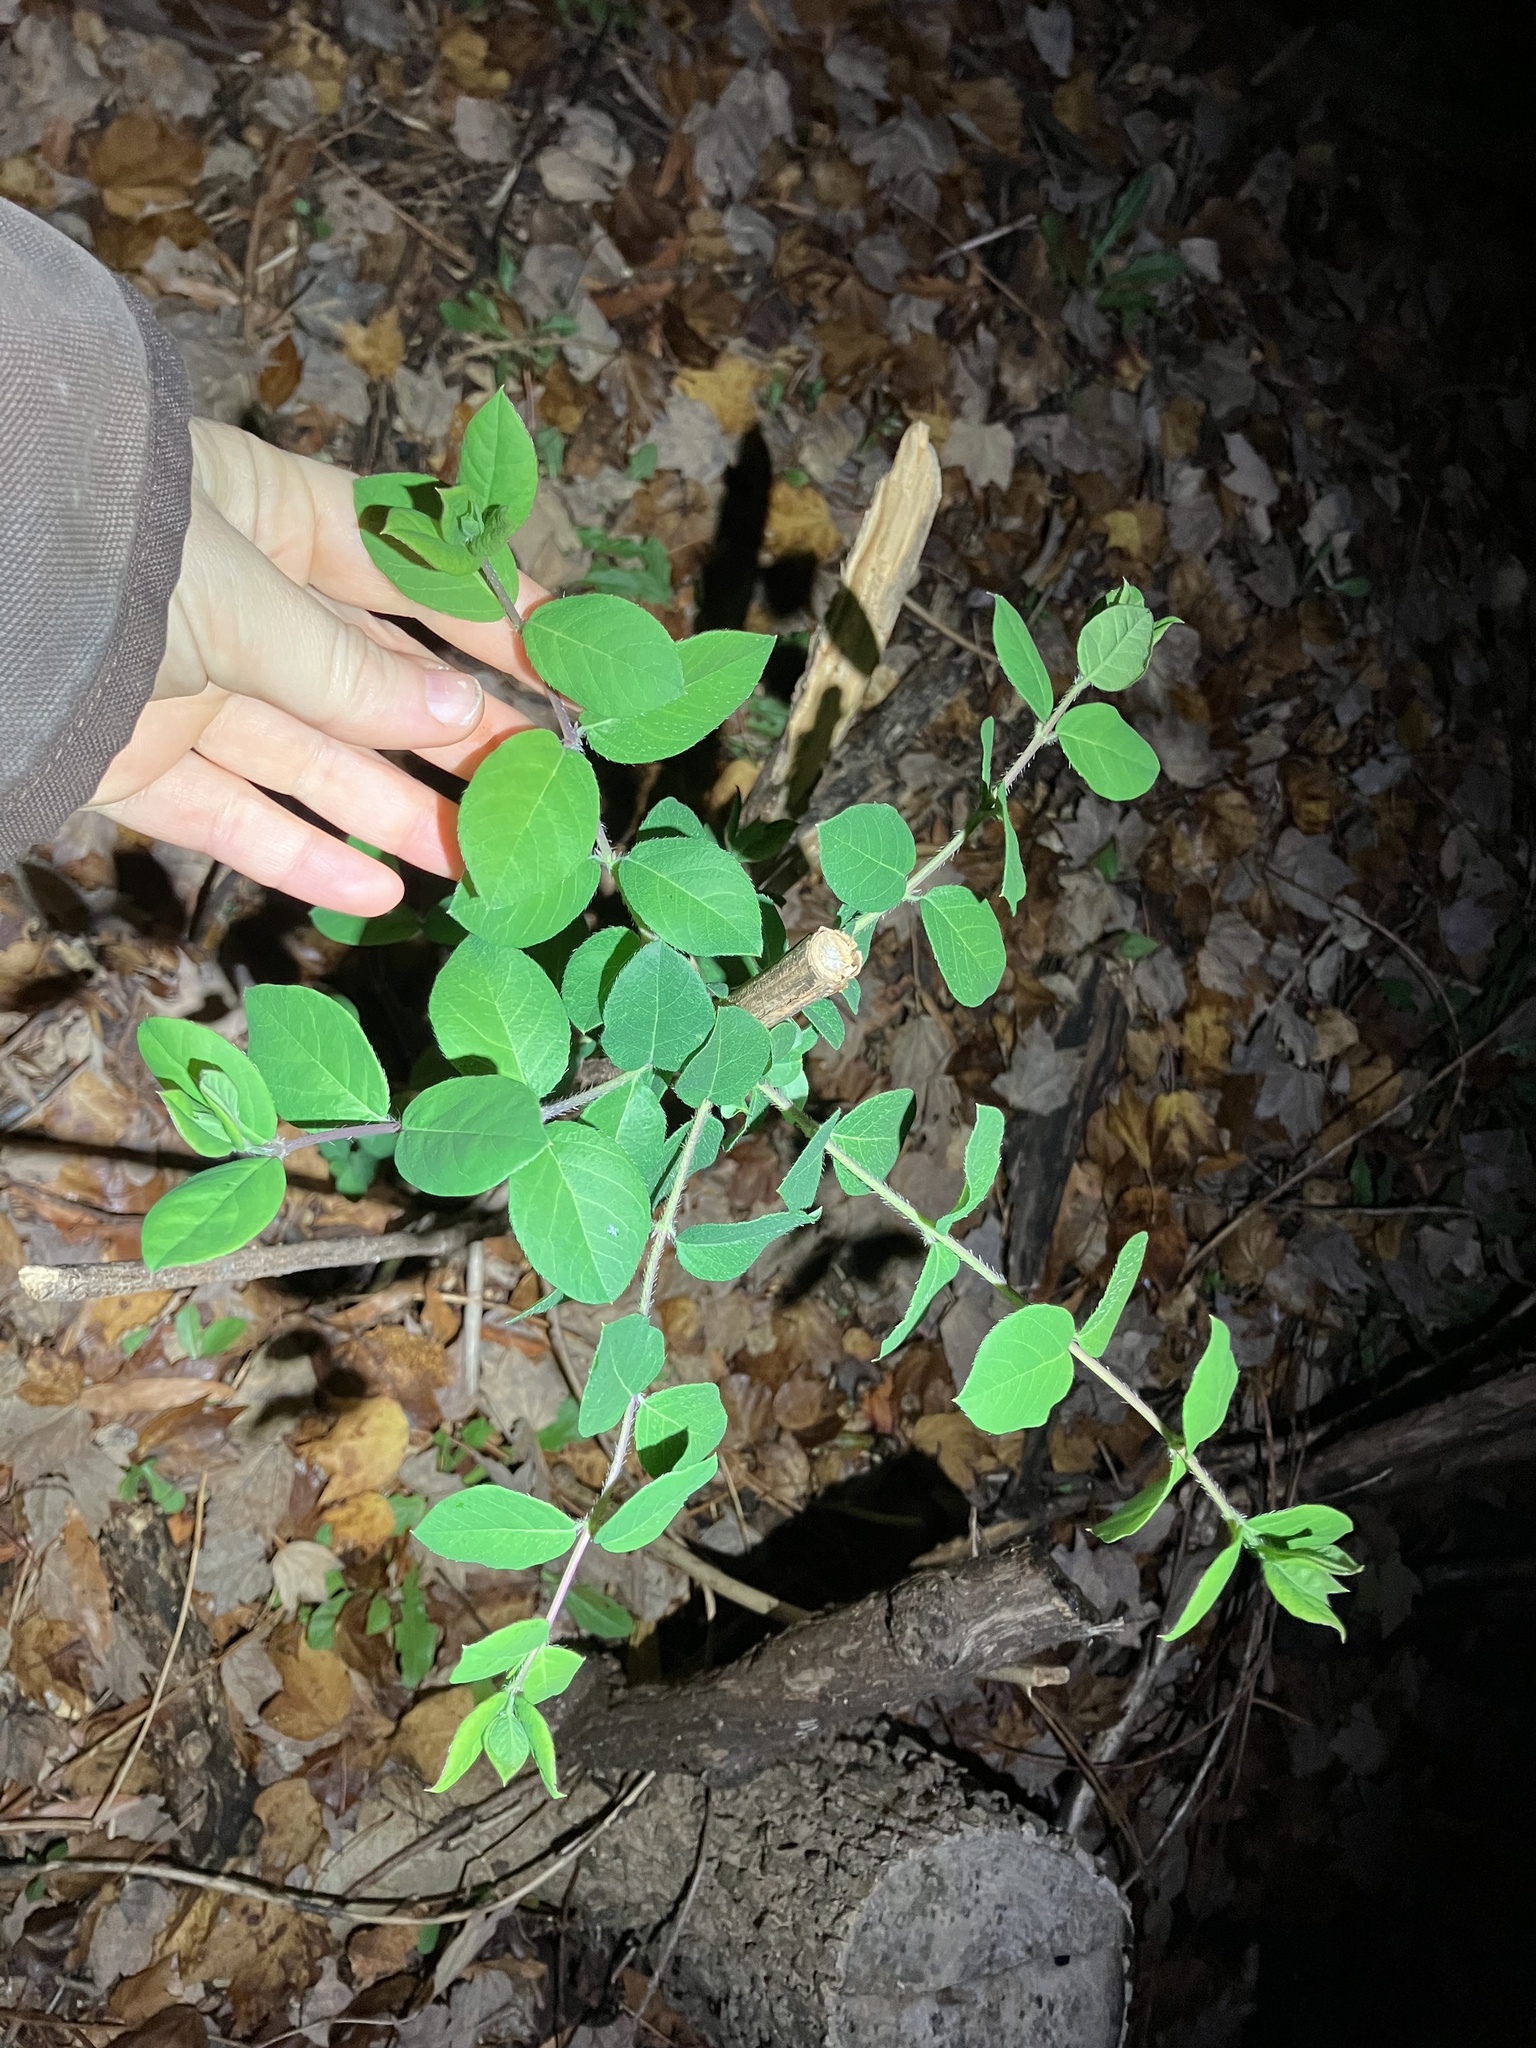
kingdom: Plantae
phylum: Tracheophyta
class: Magnoliopsida
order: Dipsacales
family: Caprifoliaceae
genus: Lonicera
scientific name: Lonicera fragrantissima
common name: Fragrant honeysuckle
